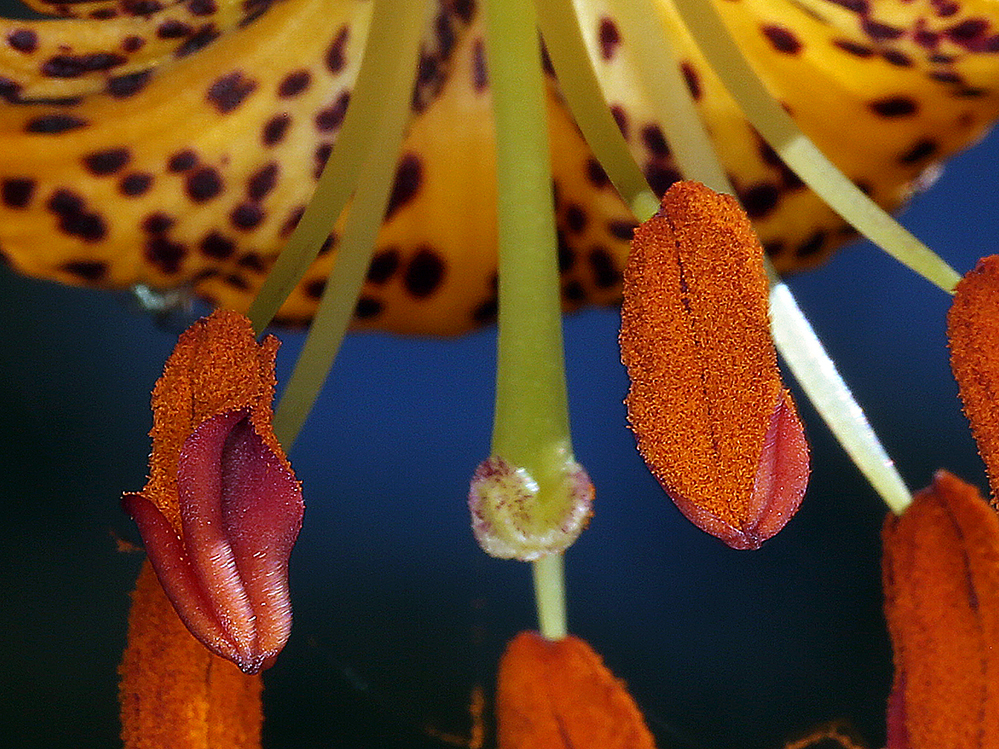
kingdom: Plantae
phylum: Tracheophyta
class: Liliopsida
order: Liliales
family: Liliaceae
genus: Lilium
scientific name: Lilium pardalinum
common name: Panther lily
